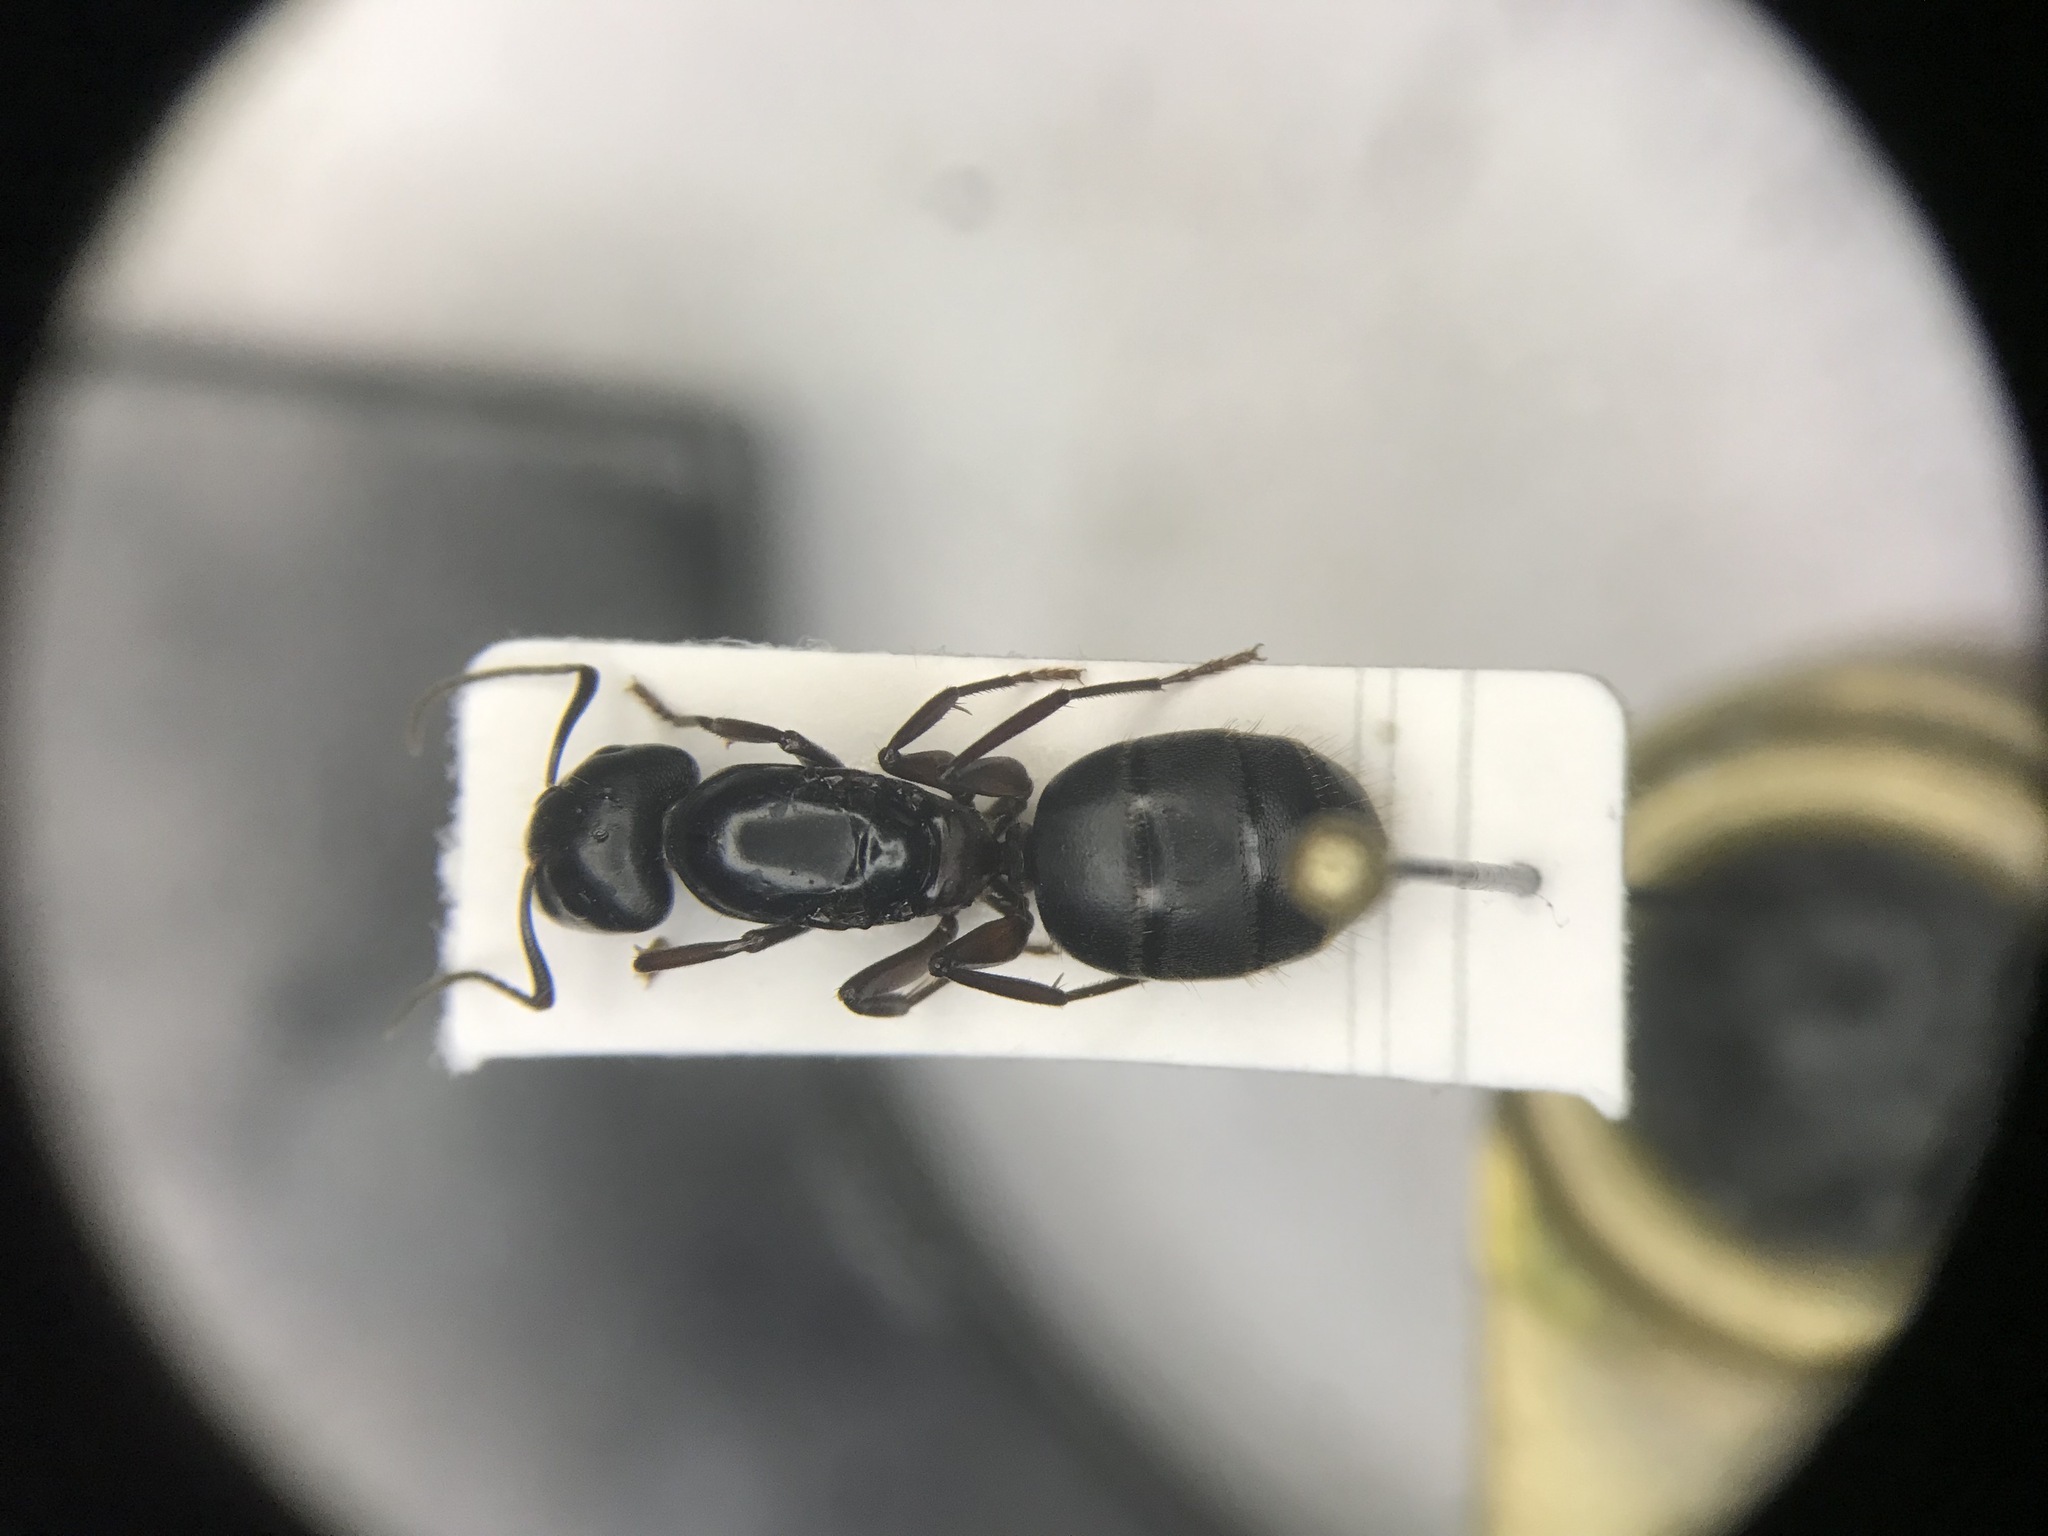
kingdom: Animalia
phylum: Arthropoda
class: Insecta
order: Hymenoptera
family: Formicidae
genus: Camponotus
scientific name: Camponotus herculeanus
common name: Hercules ant
